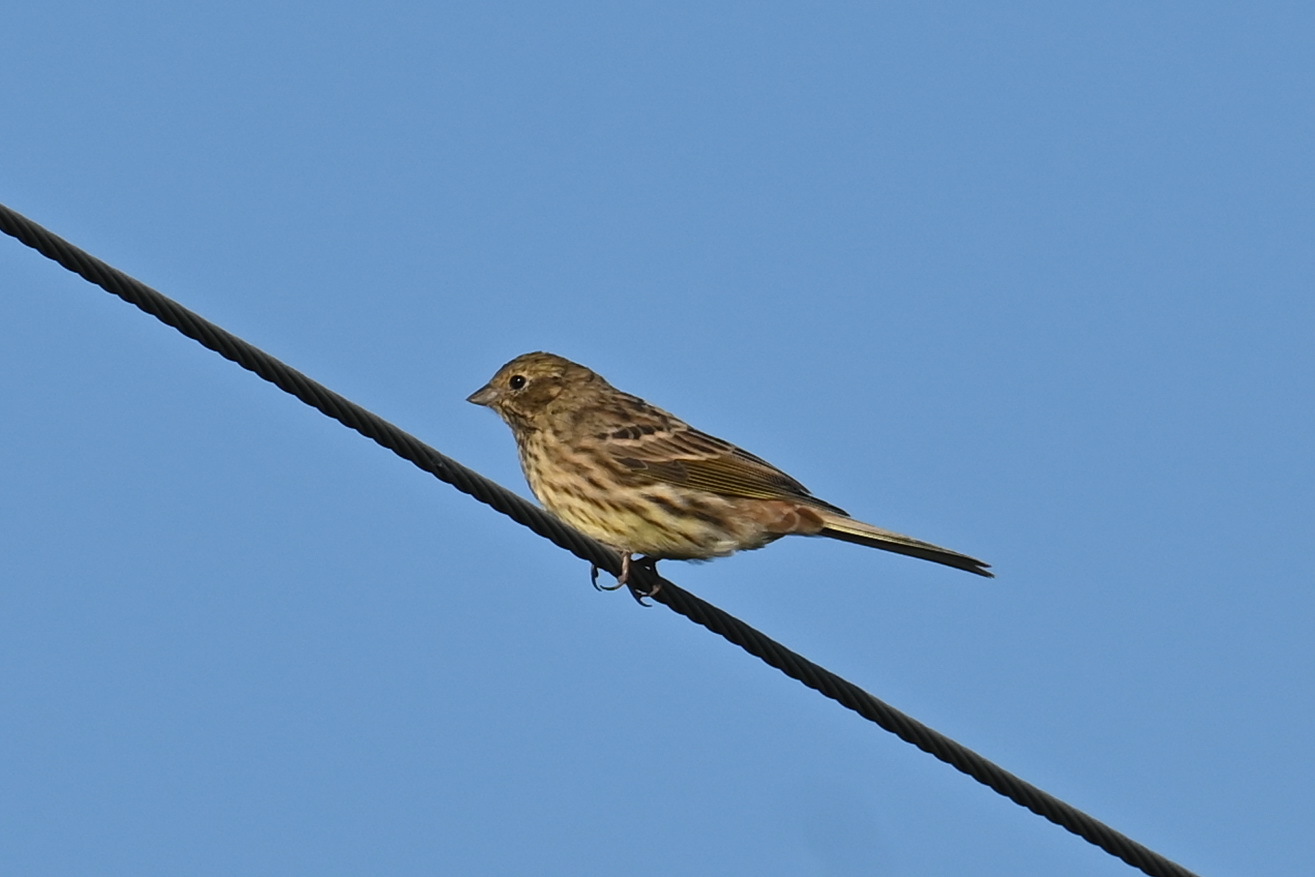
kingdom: Animalia
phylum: Chordata
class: Aves
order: Passeriformes
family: Emberizidae
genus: Emberiza
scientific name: Emberiza citrinella
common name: Yellowhammer
